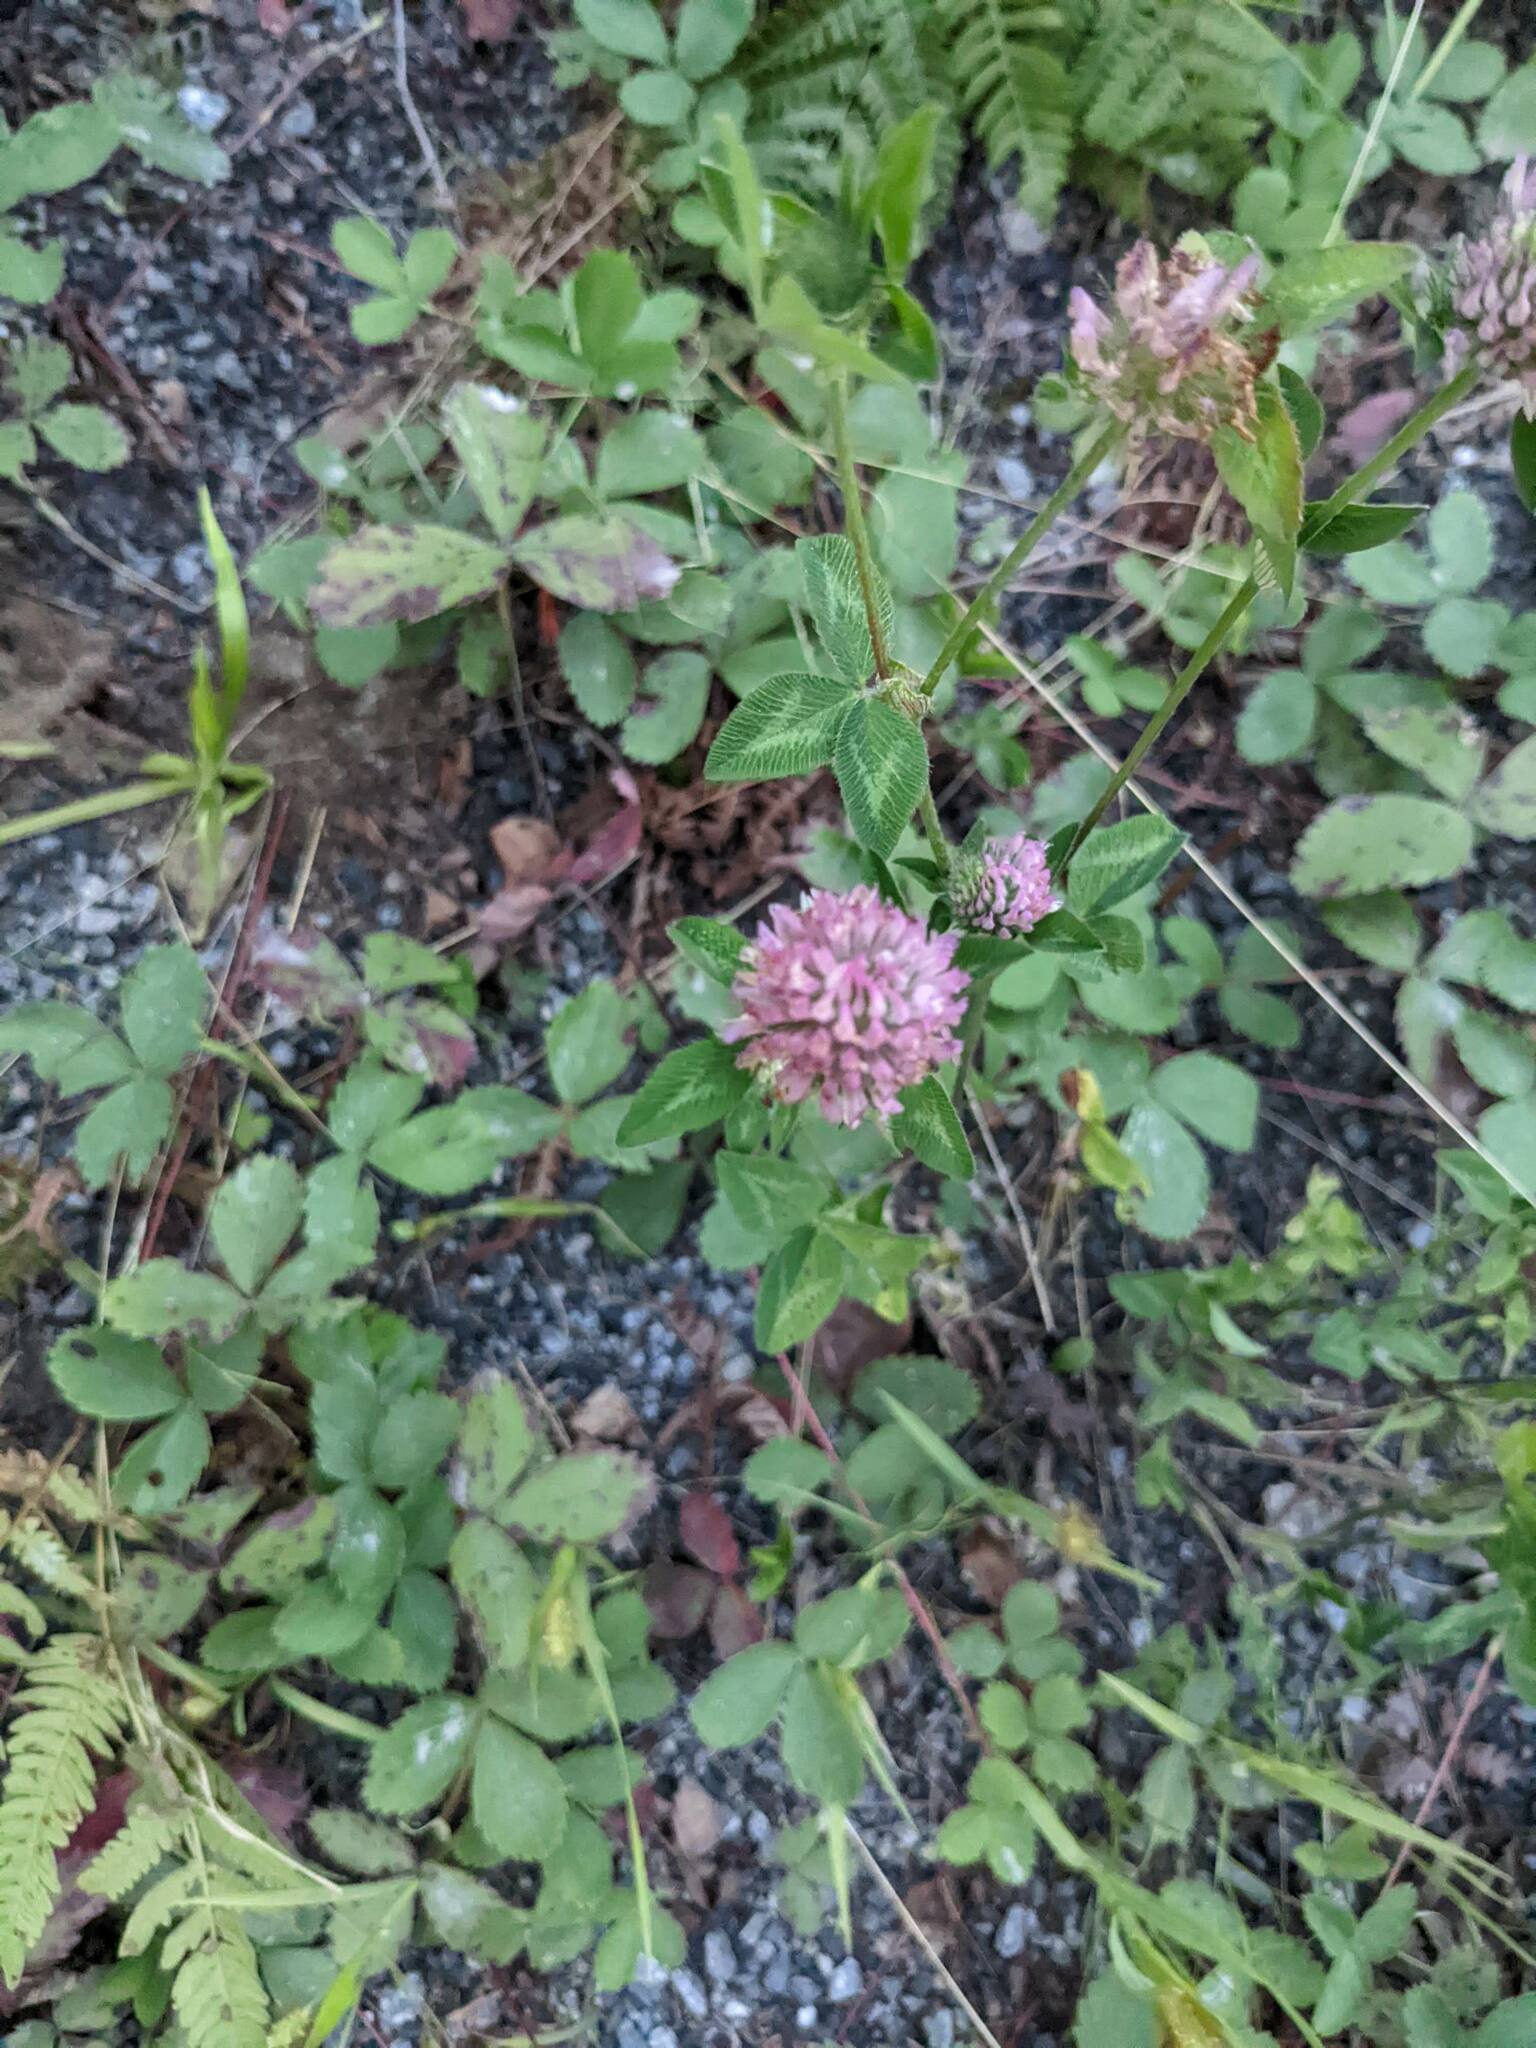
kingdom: Plantae
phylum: Tracheophyta
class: Magnoliopsida
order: Fabales
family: Fabaceae
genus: Trifolium
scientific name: Trifolium pratense
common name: Red clover
